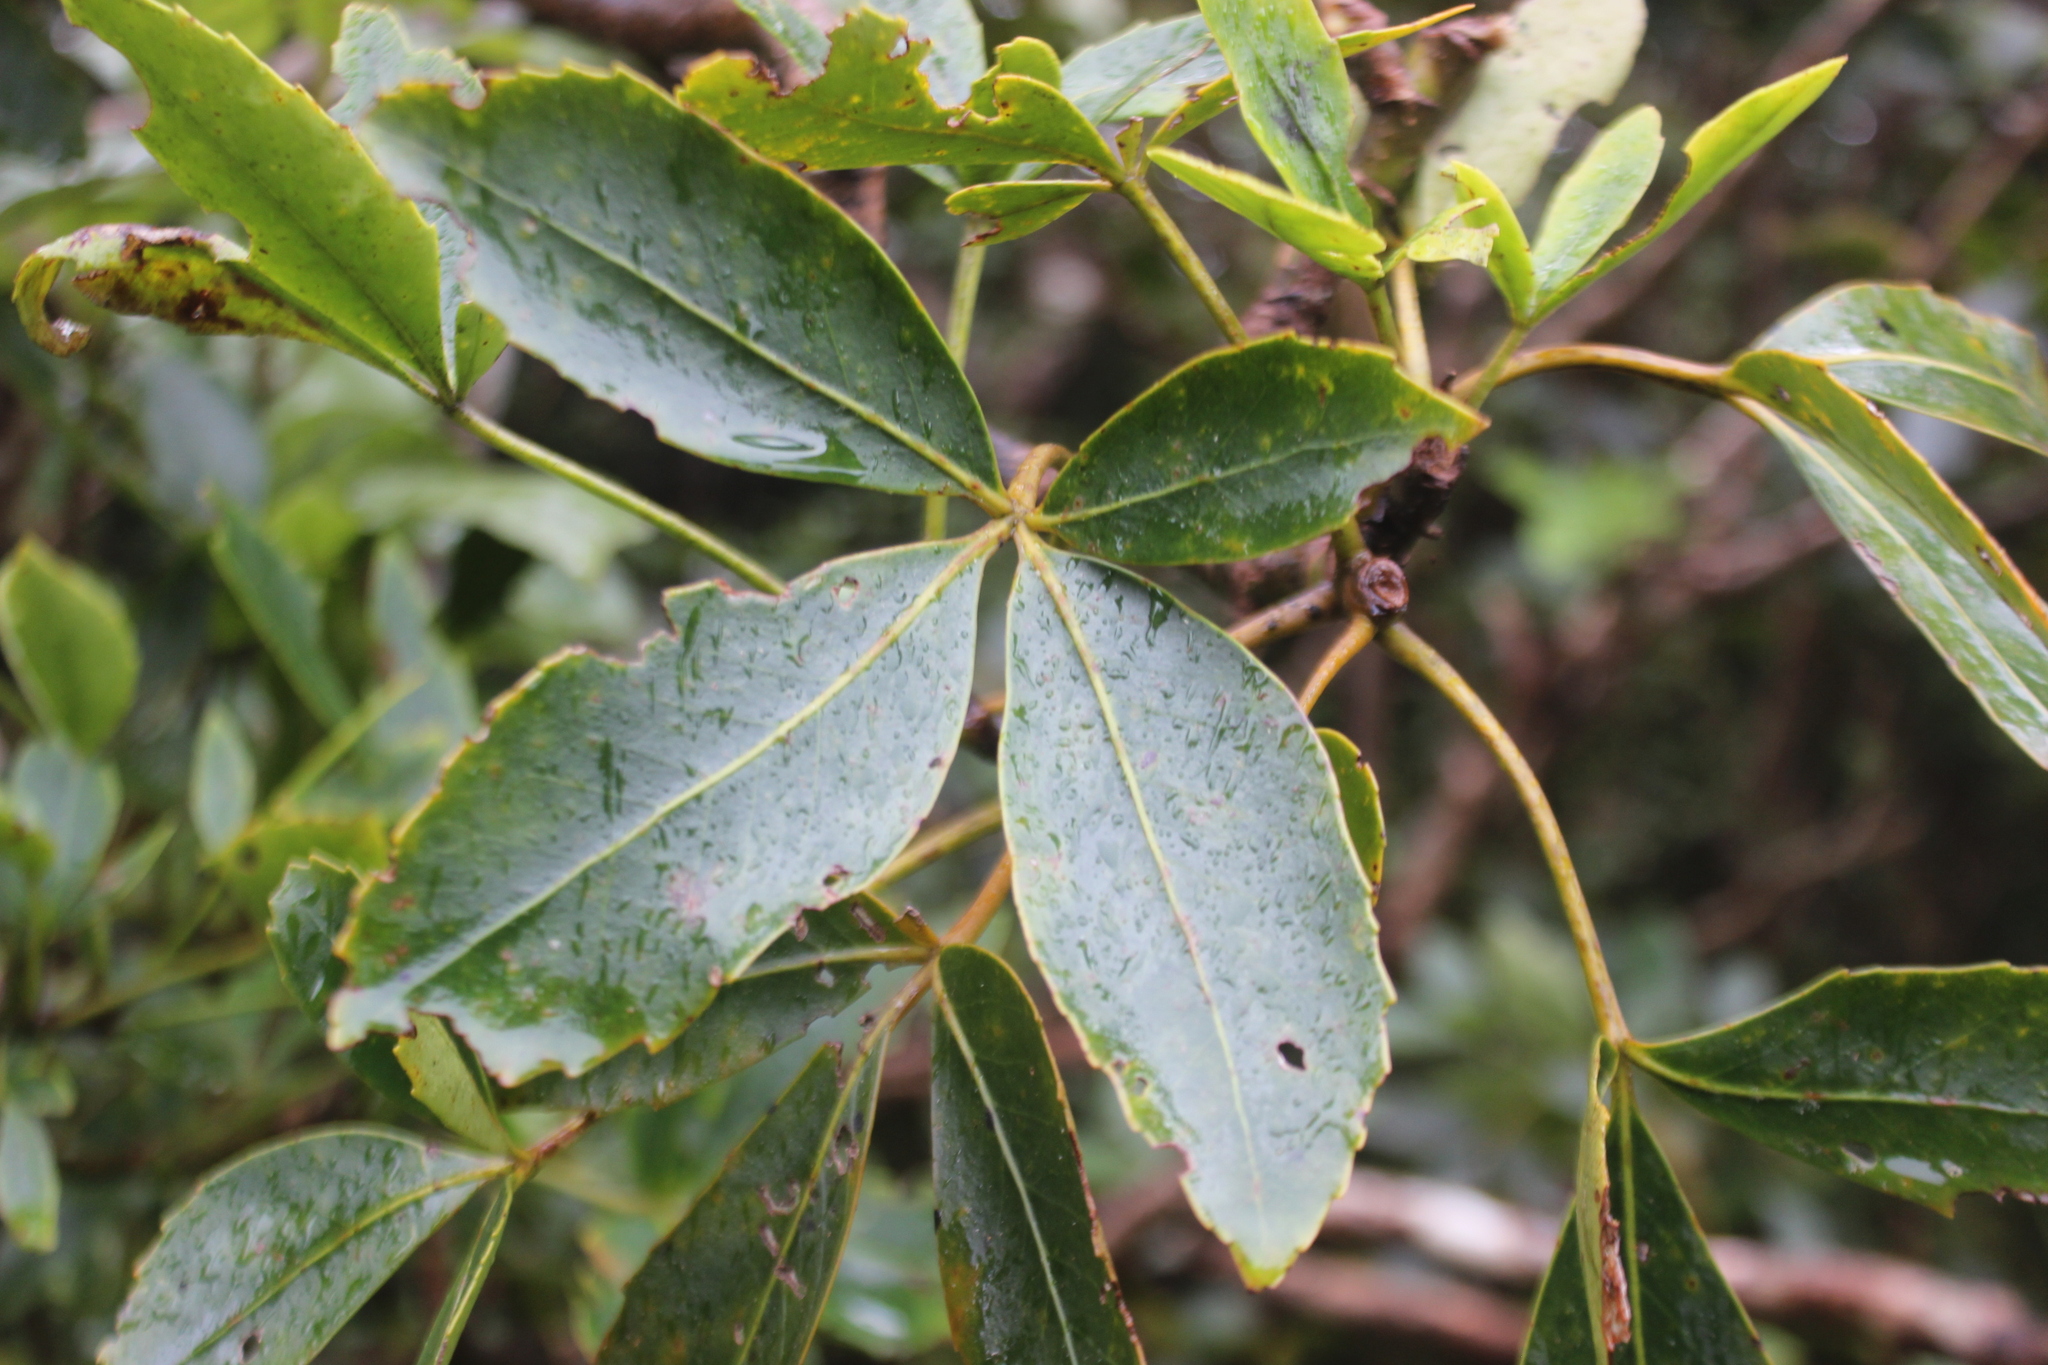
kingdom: Plantae
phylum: Tracheophyta
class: Magnoliopsida
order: Apiales
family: Araliaceae
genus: Neopanax
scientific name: Neopanax colensoi
